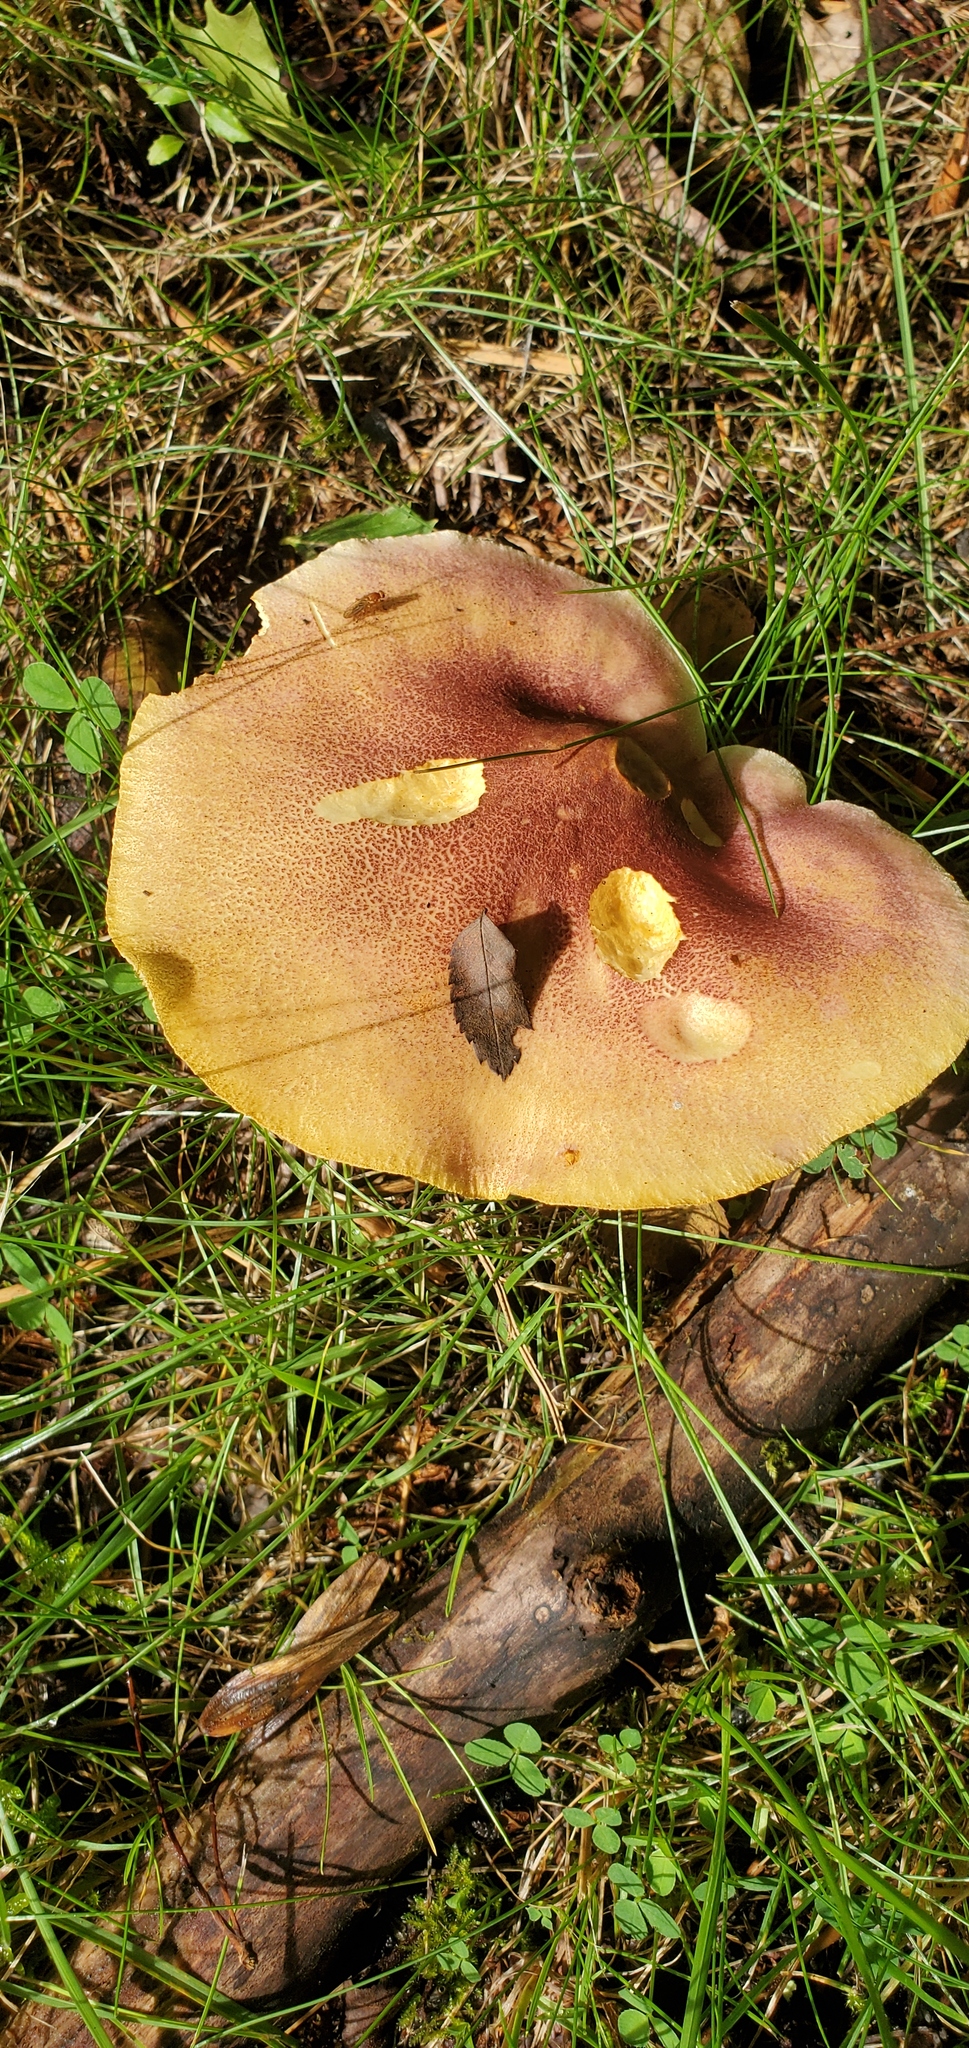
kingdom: Fungi
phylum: Basidiomycota
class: Agaricomycetes
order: Agaricales
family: Tricholomataceae
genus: Tricholomopsis
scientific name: Tricholomopsis rutilans
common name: Plums and custard
